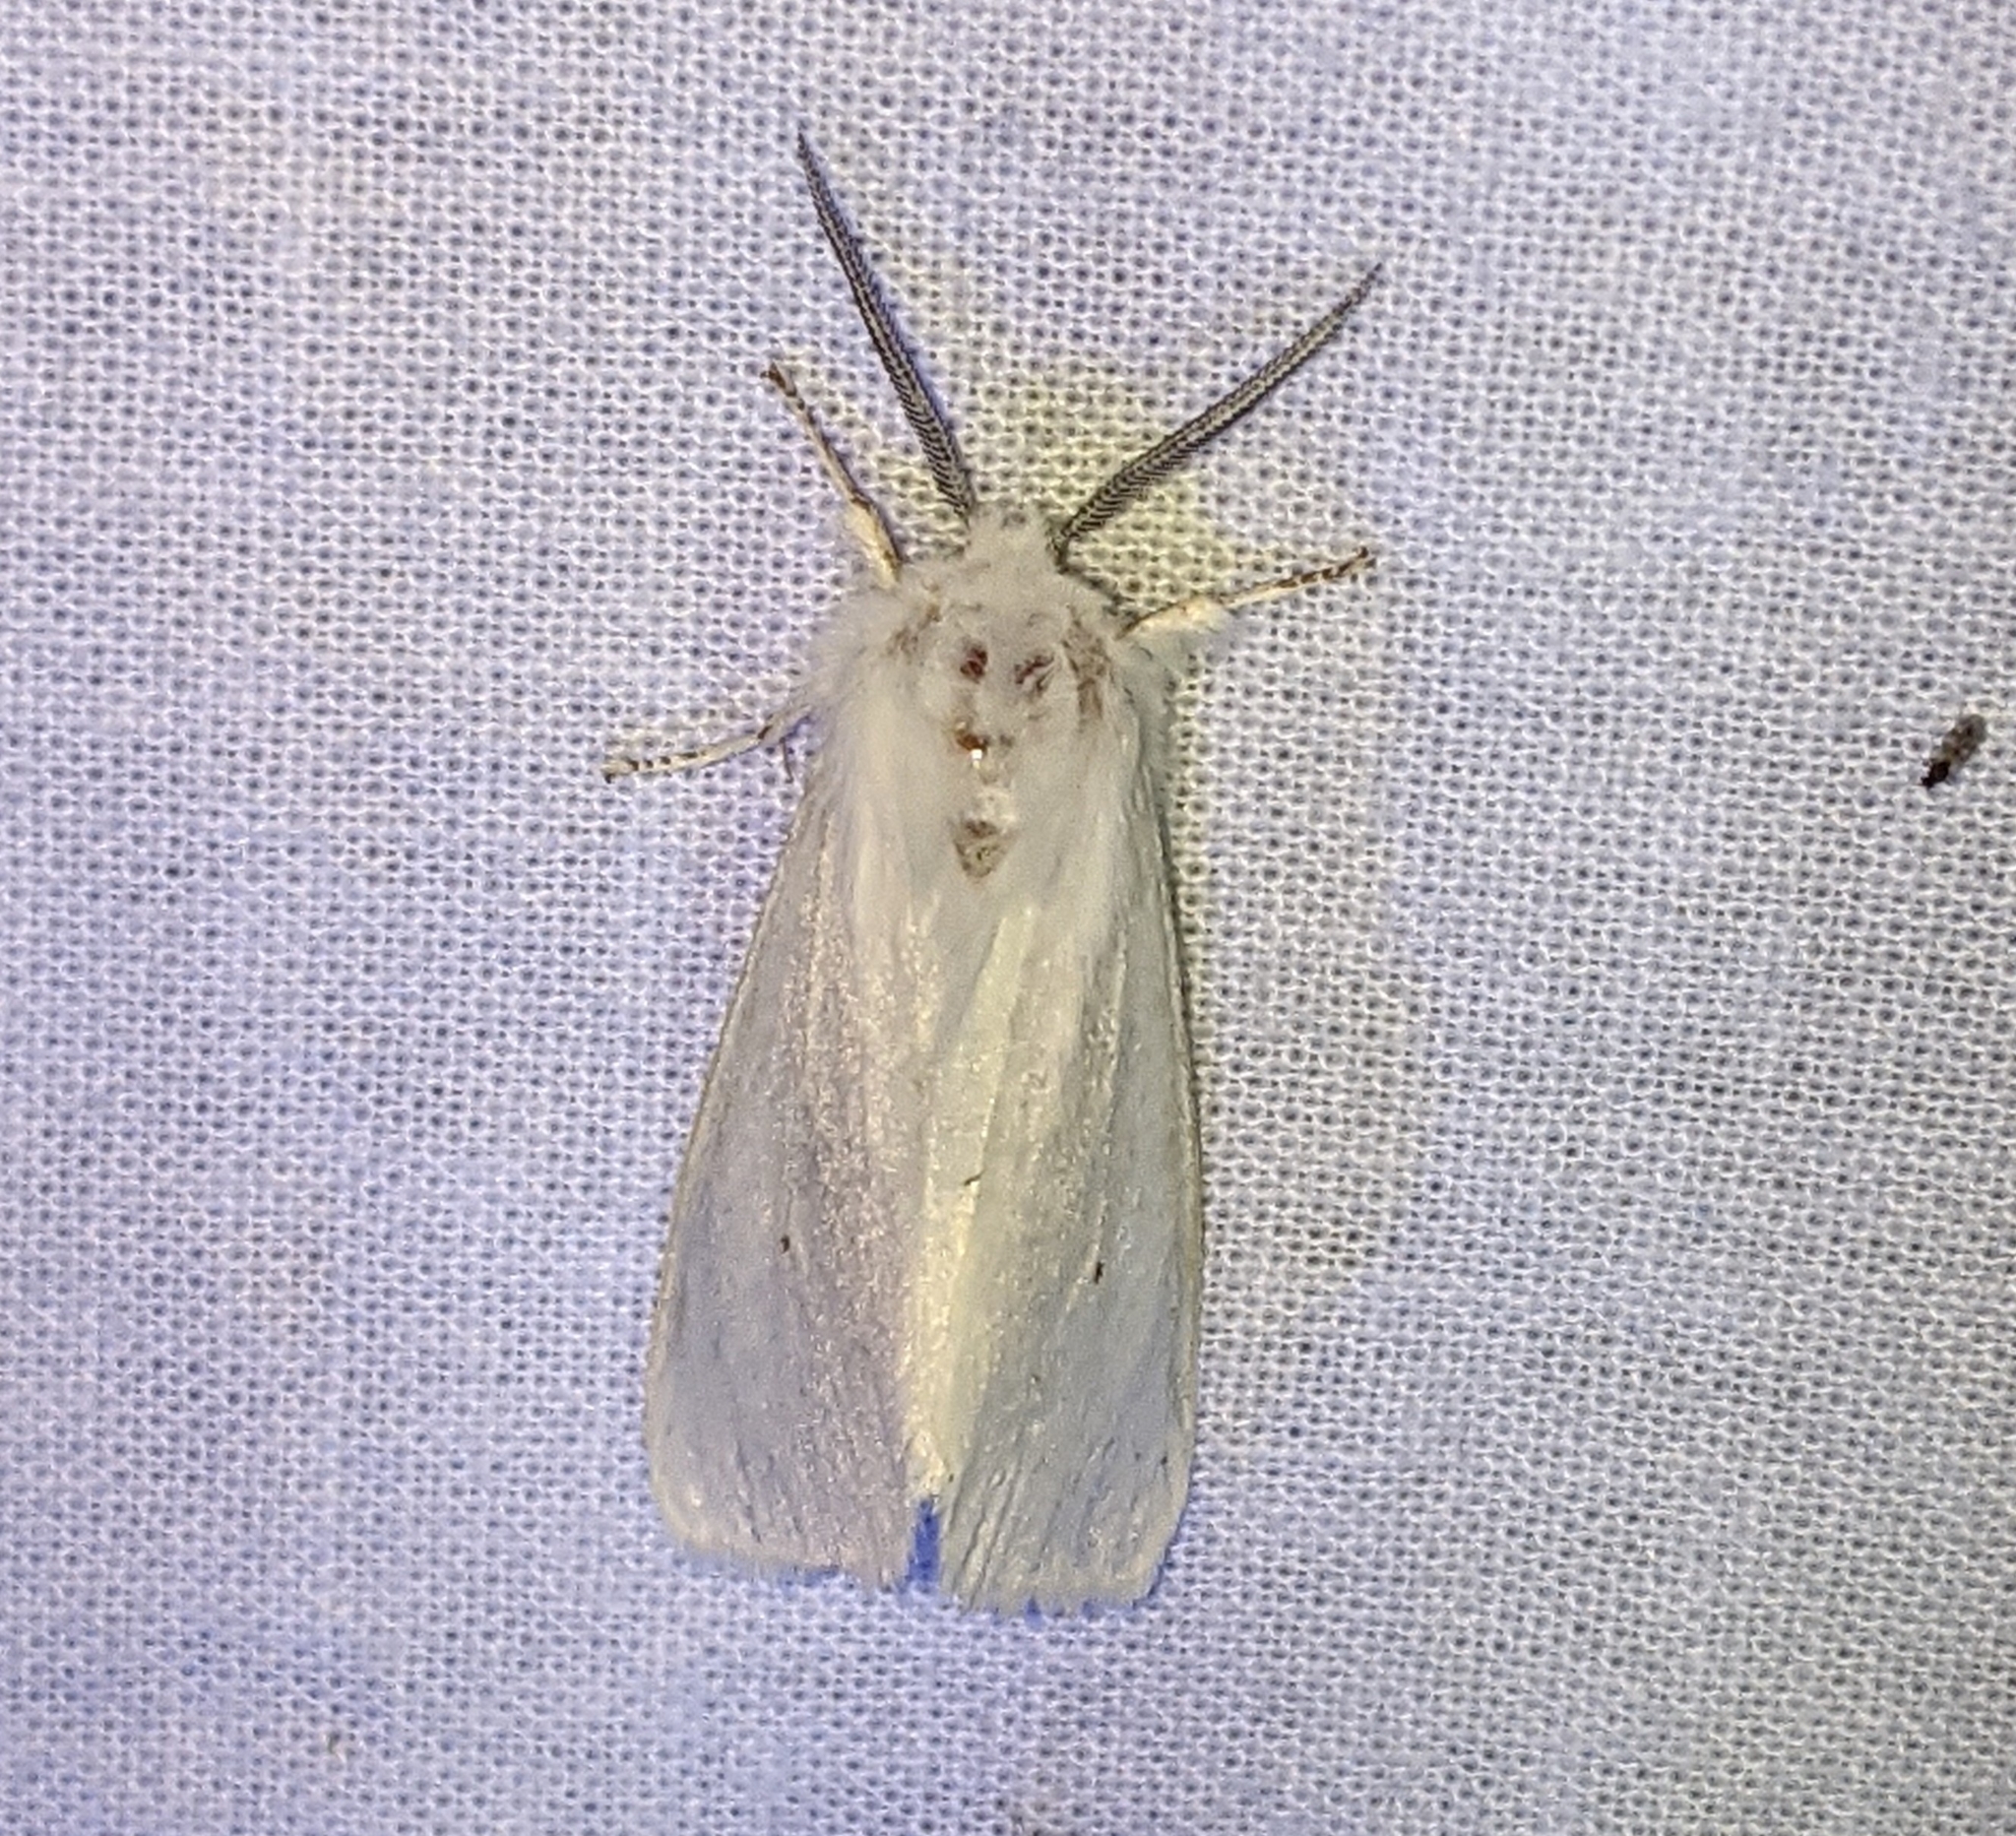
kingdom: Animalia
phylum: Arthropoda
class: Insecta
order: Lepidoptera
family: Erebidae
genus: Spilosoma
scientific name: Spilosoma virginica
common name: Virginia tiger moth
